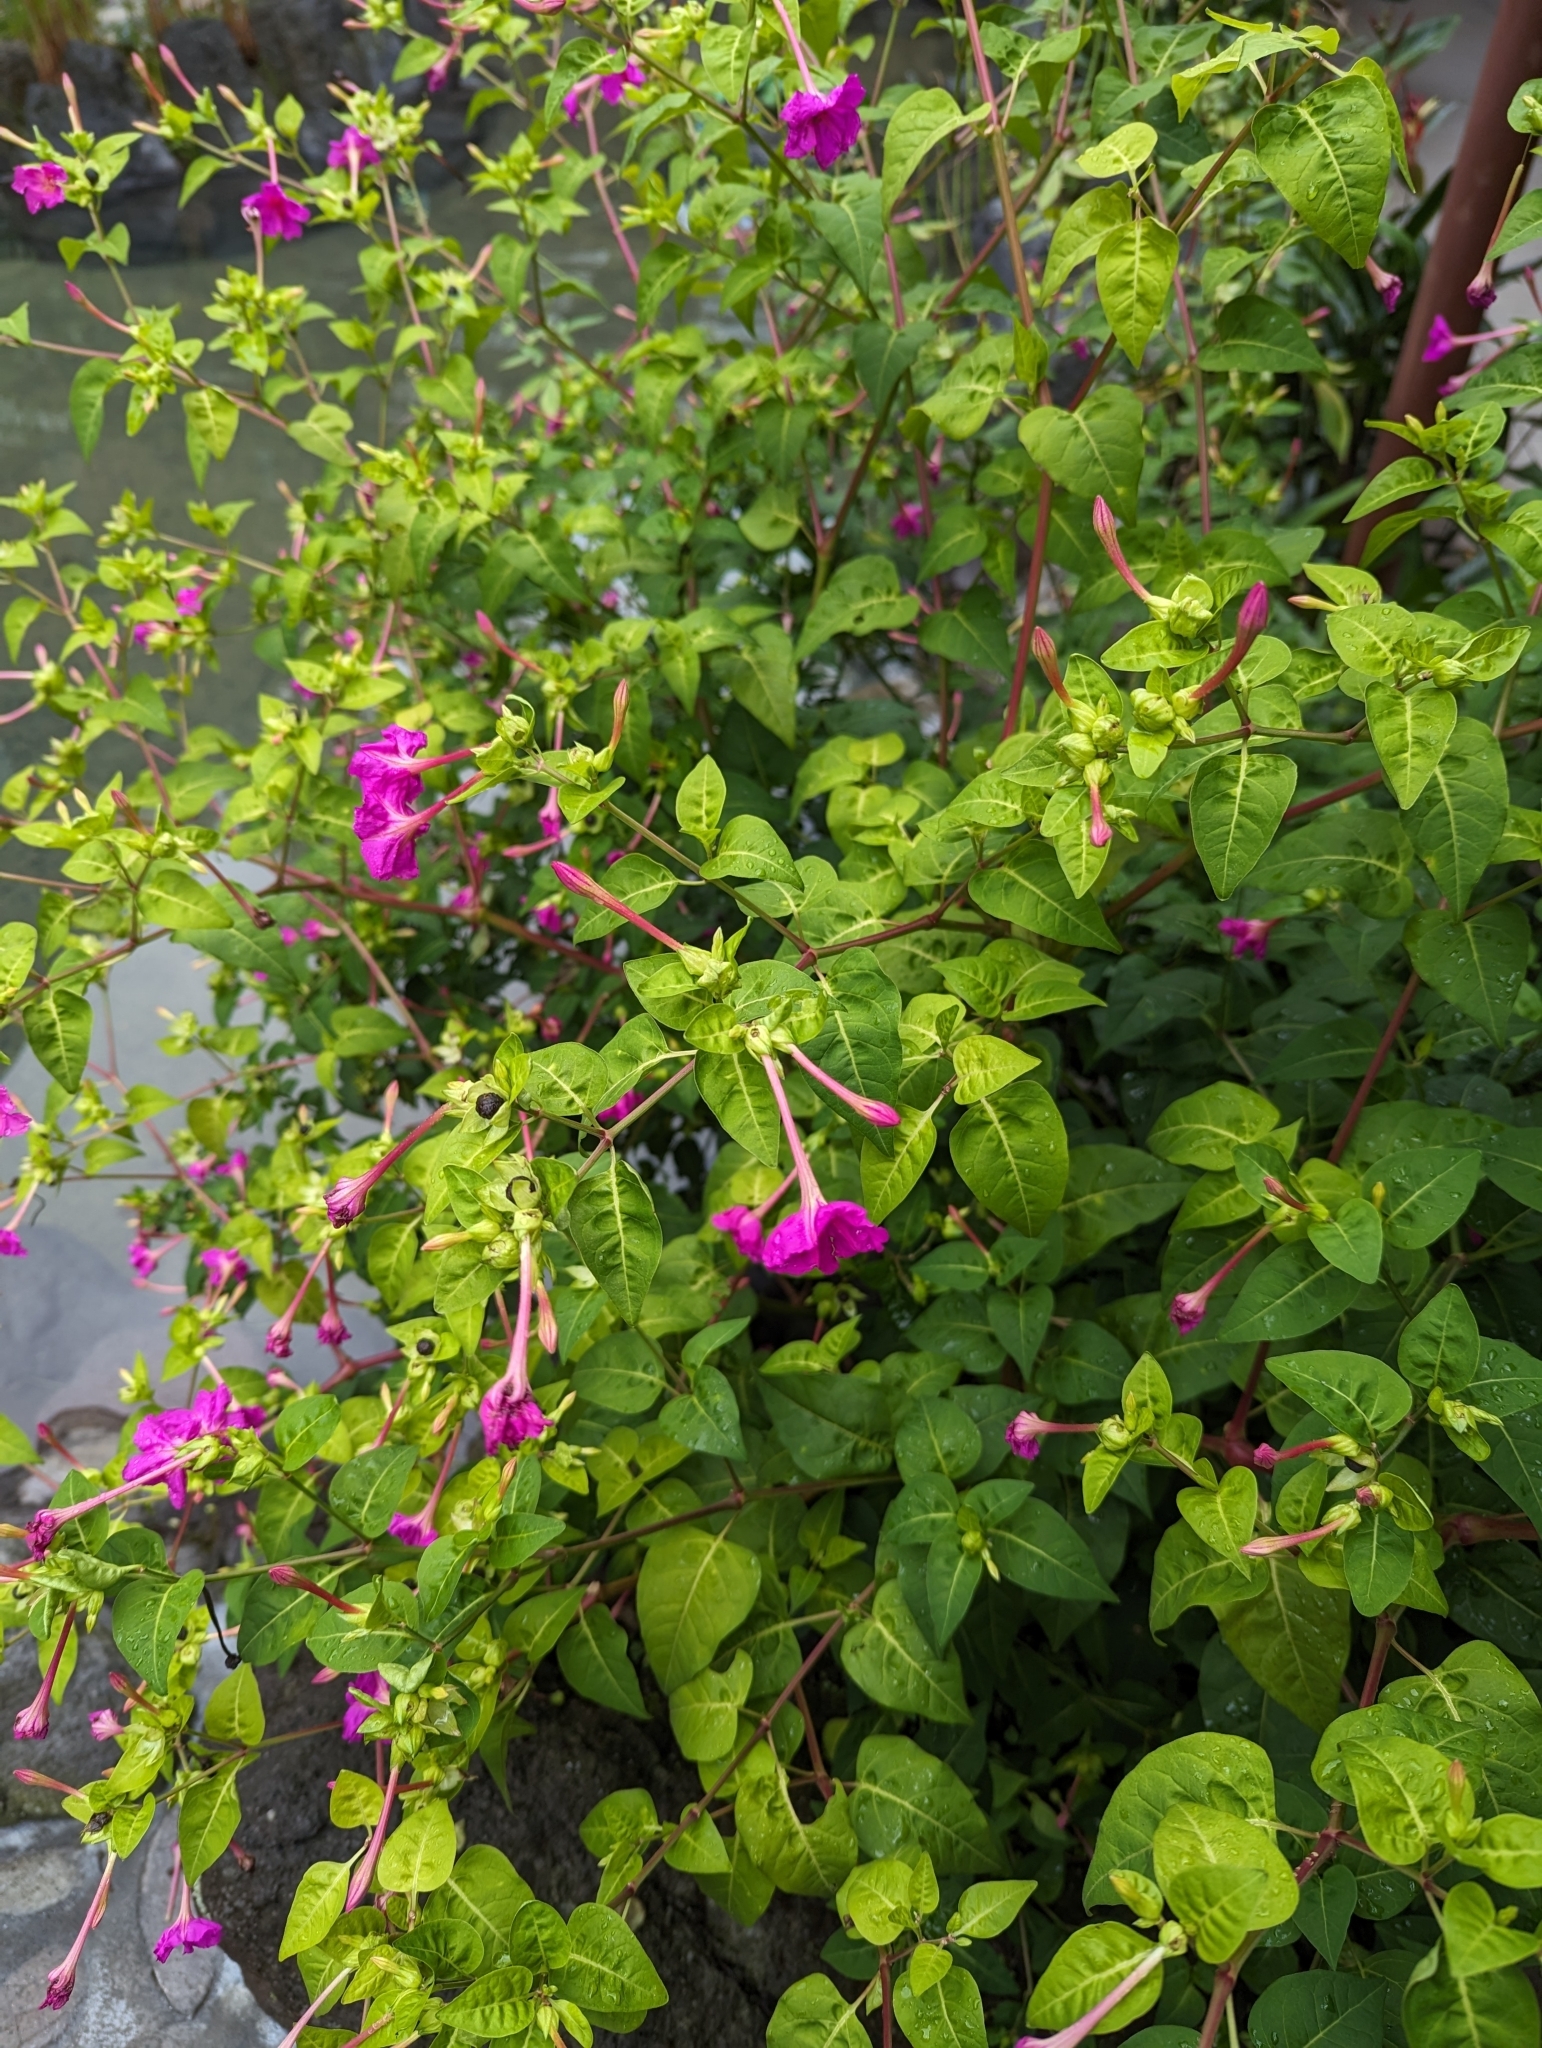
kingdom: Plantae
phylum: Tracheophyta
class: Magnoliopsida
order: Caryophyllales
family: Nyctaginaceae
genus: Mirabilis
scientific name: Mirabilis jalapa
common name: Marvel-of-peru
